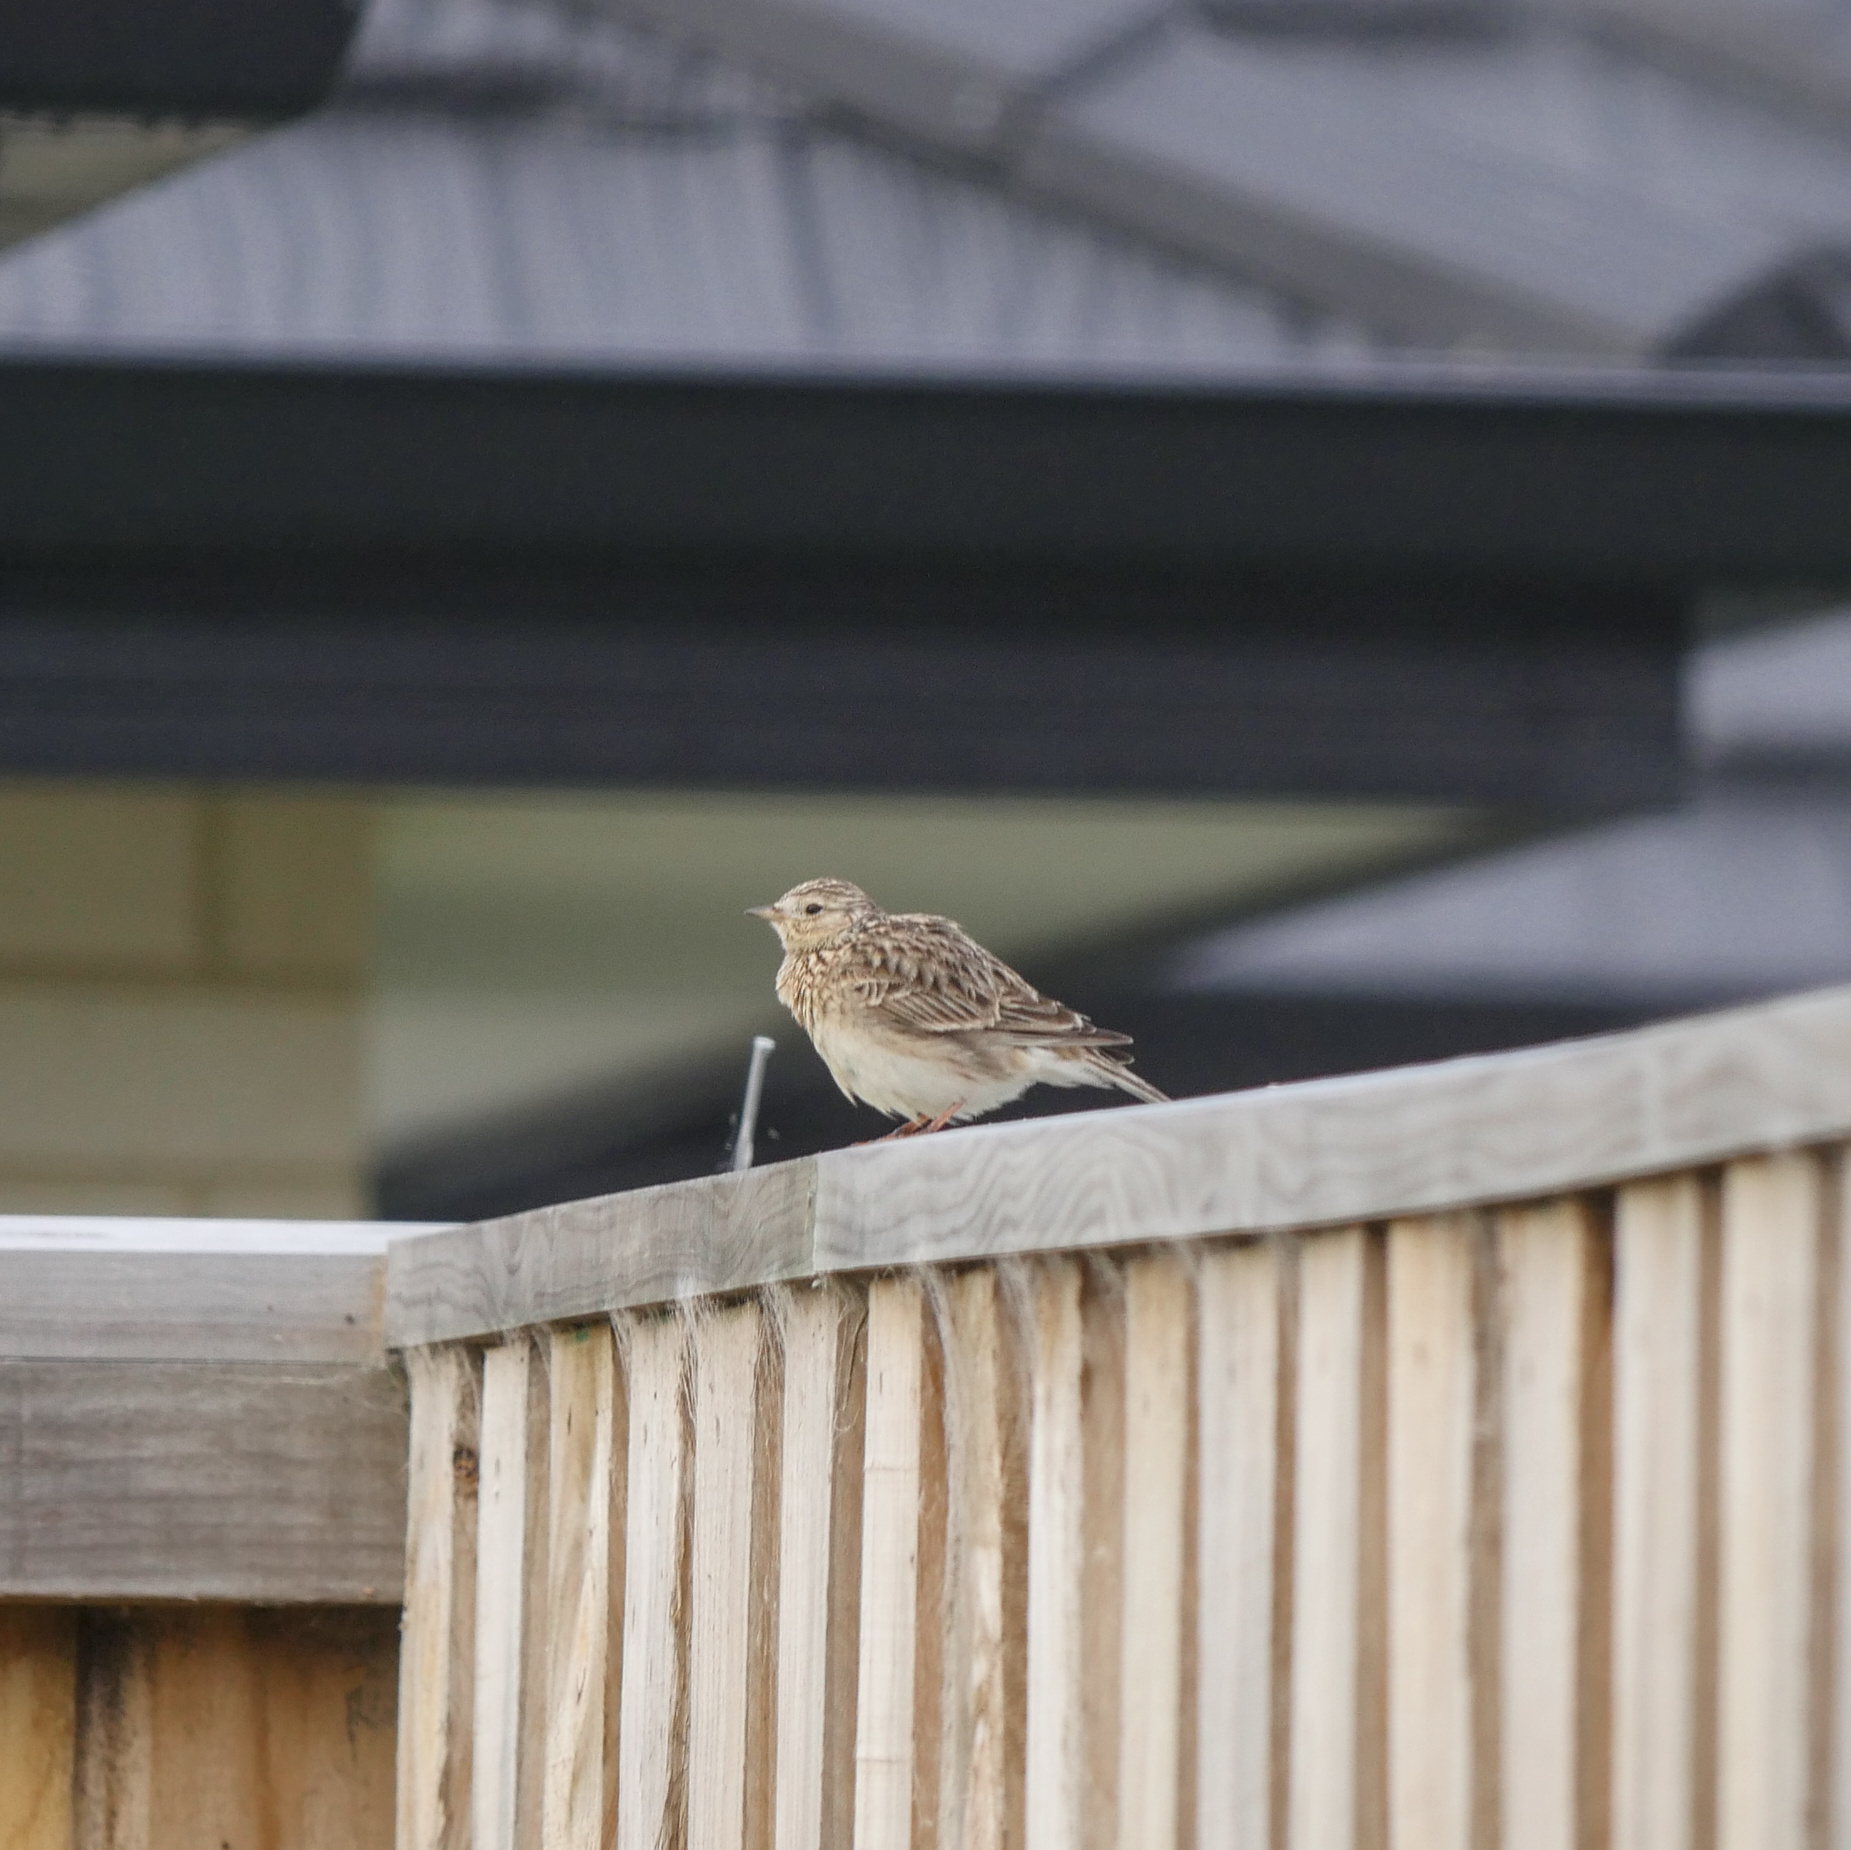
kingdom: Animalia
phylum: Chordata
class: Aves
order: Passeriformes
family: Alaudidae
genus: Alauda
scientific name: Alauda arvensis
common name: Eurasian skylark
